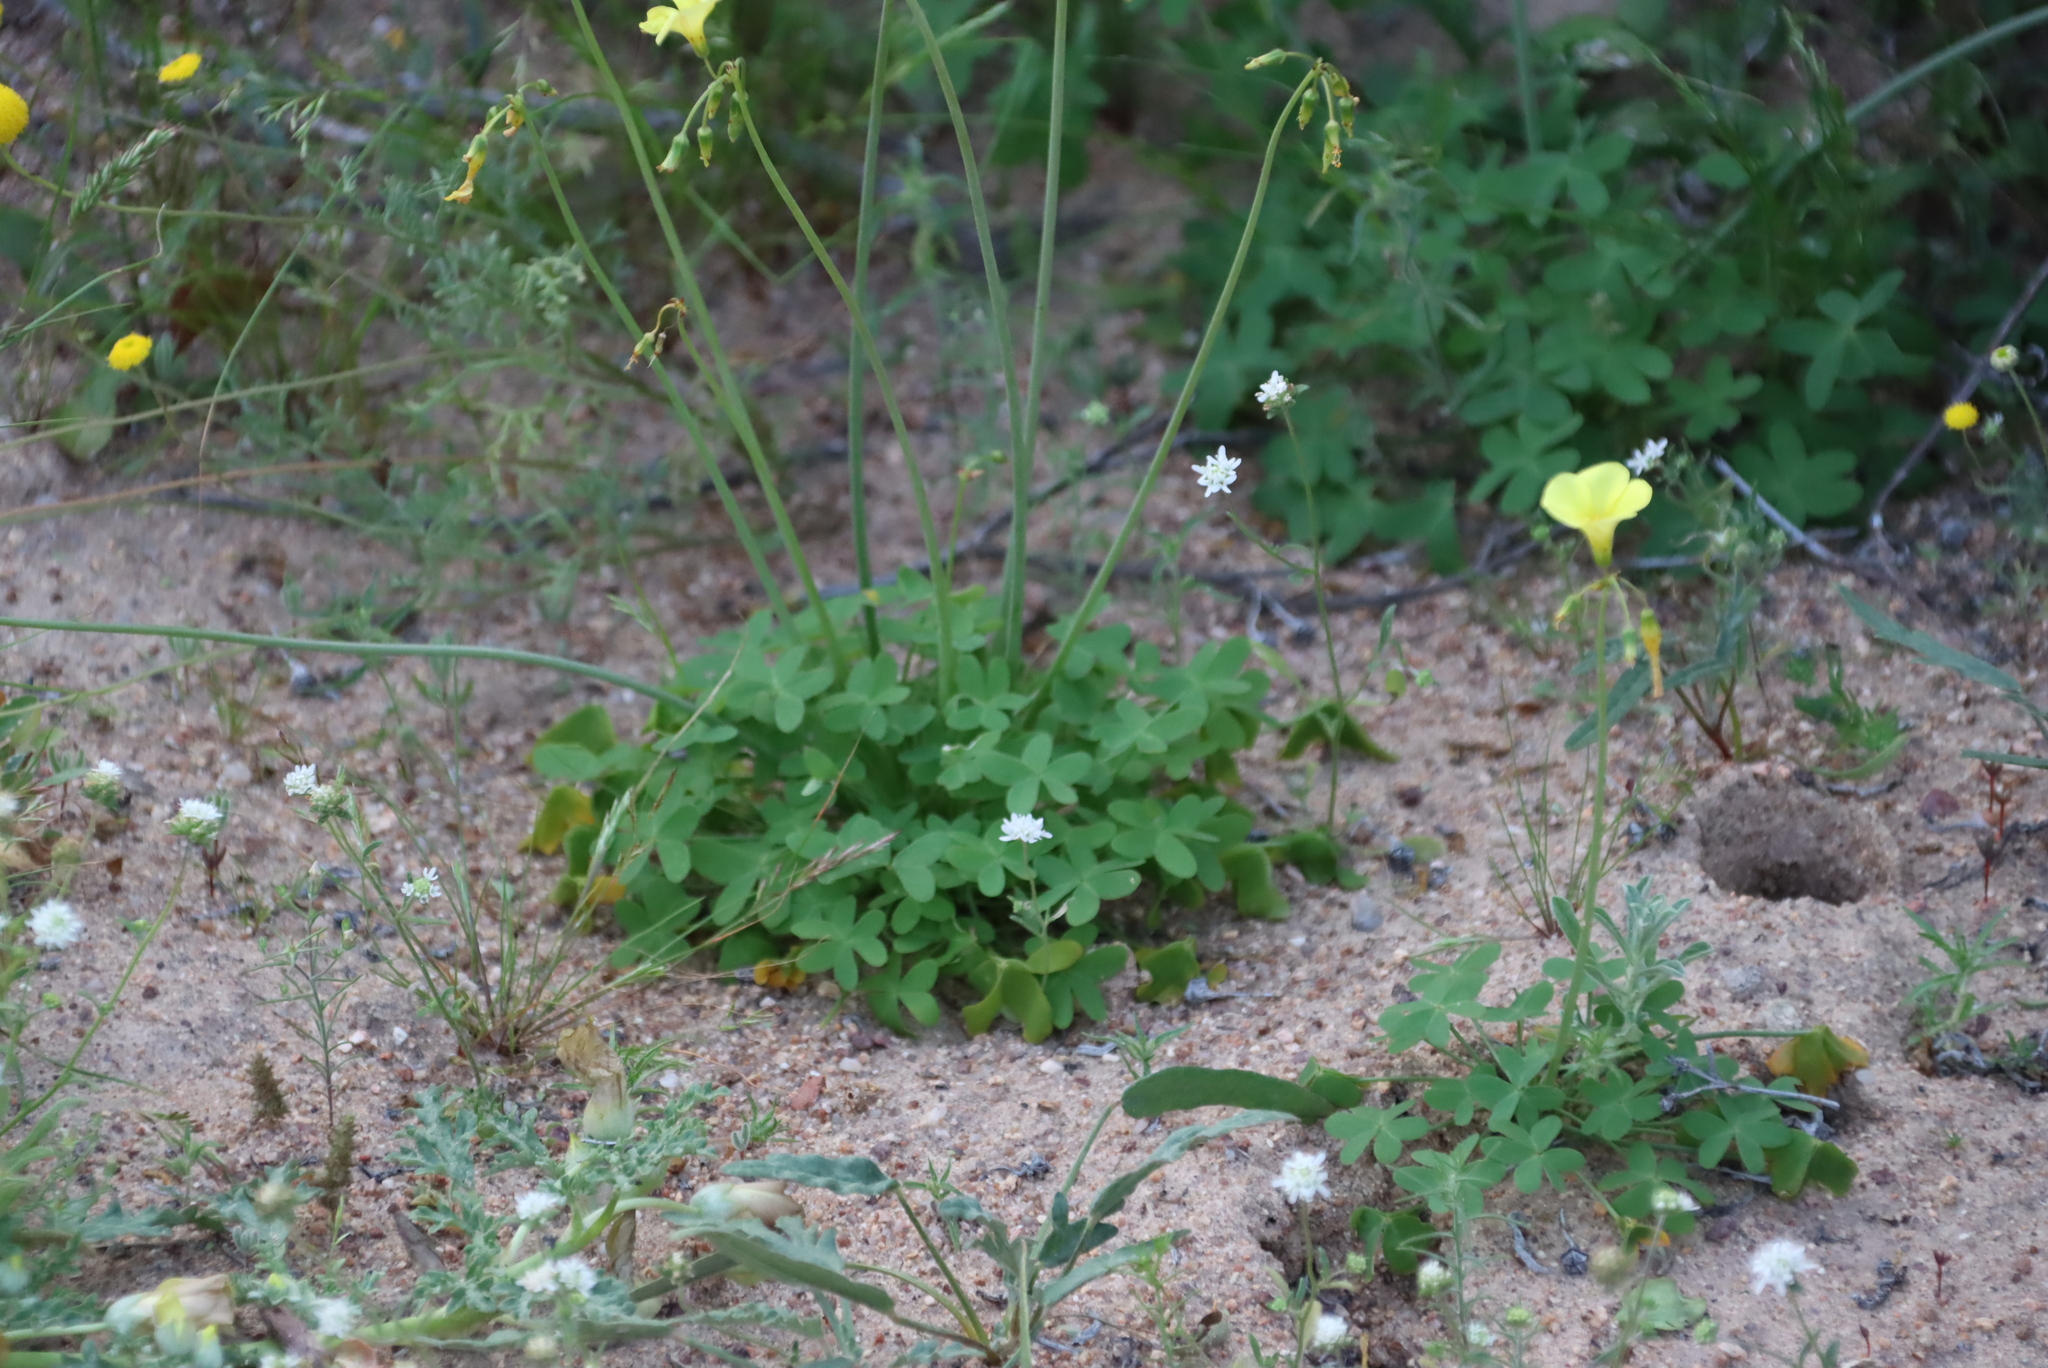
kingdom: Plantae
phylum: Tracheophyta
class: Magnoliopsida
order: Oxalidales
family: Oxalidaceae
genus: Oxalis
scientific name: Oxalis pes-caprae
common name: Bermuda-buttercup
